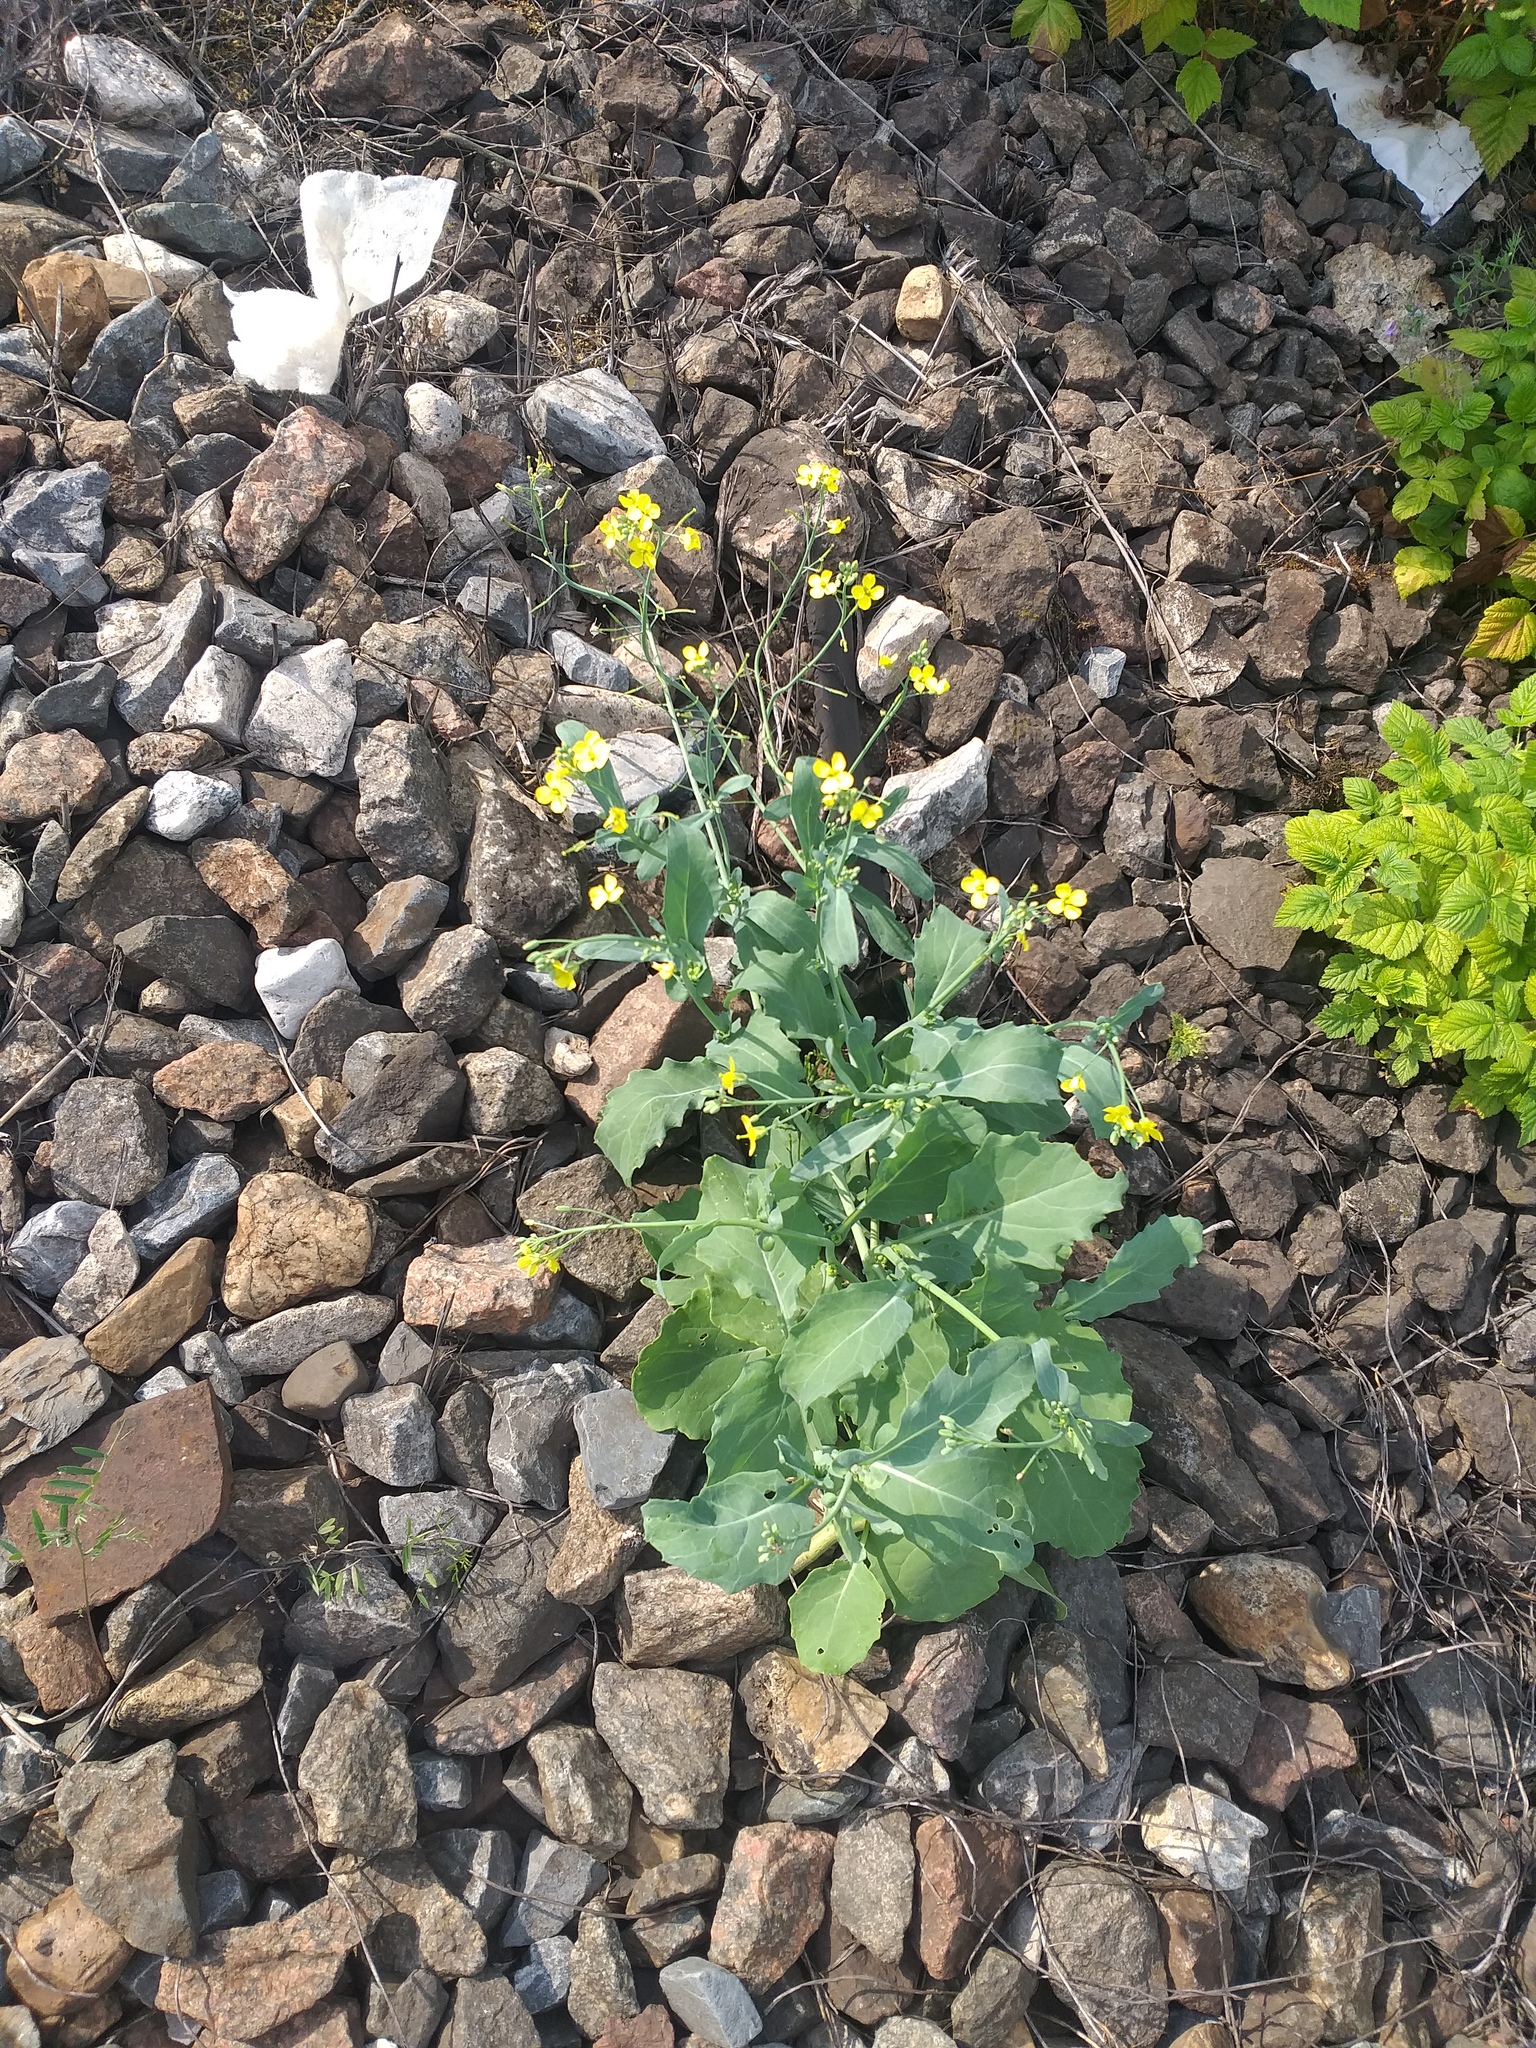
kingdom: Plantae
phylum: Tracheophyta
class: Magnoliopsida
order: Brassicales
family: Brassicaceae
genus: Brassica
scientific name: Brassica napus
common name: Rape
